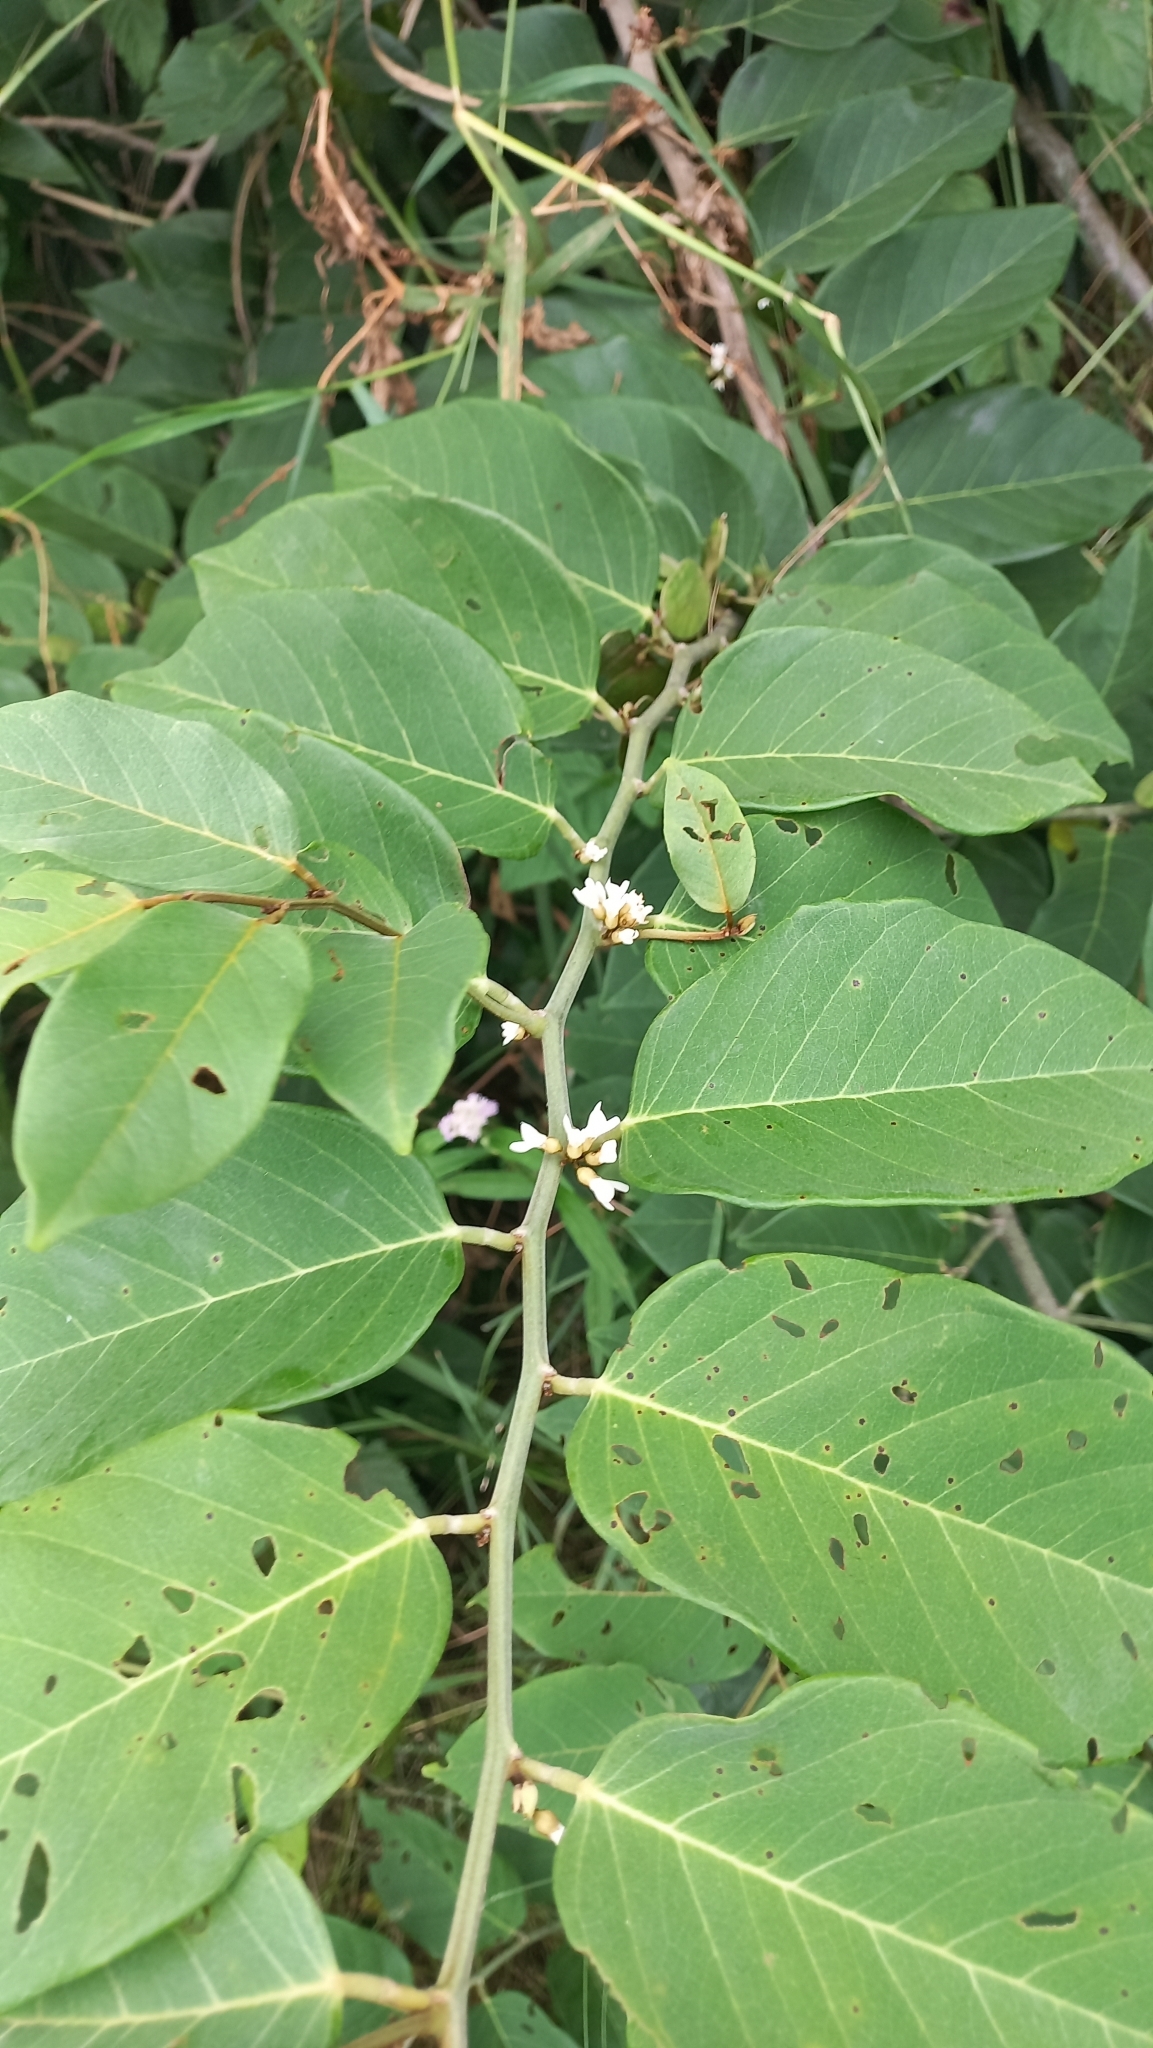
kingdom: Plantae
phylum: Tracheophyta
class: Magnoliopsida
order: Fabales
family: Fabaceae
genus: Dalbergia
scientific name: Dalbergia ecastaphyllum
